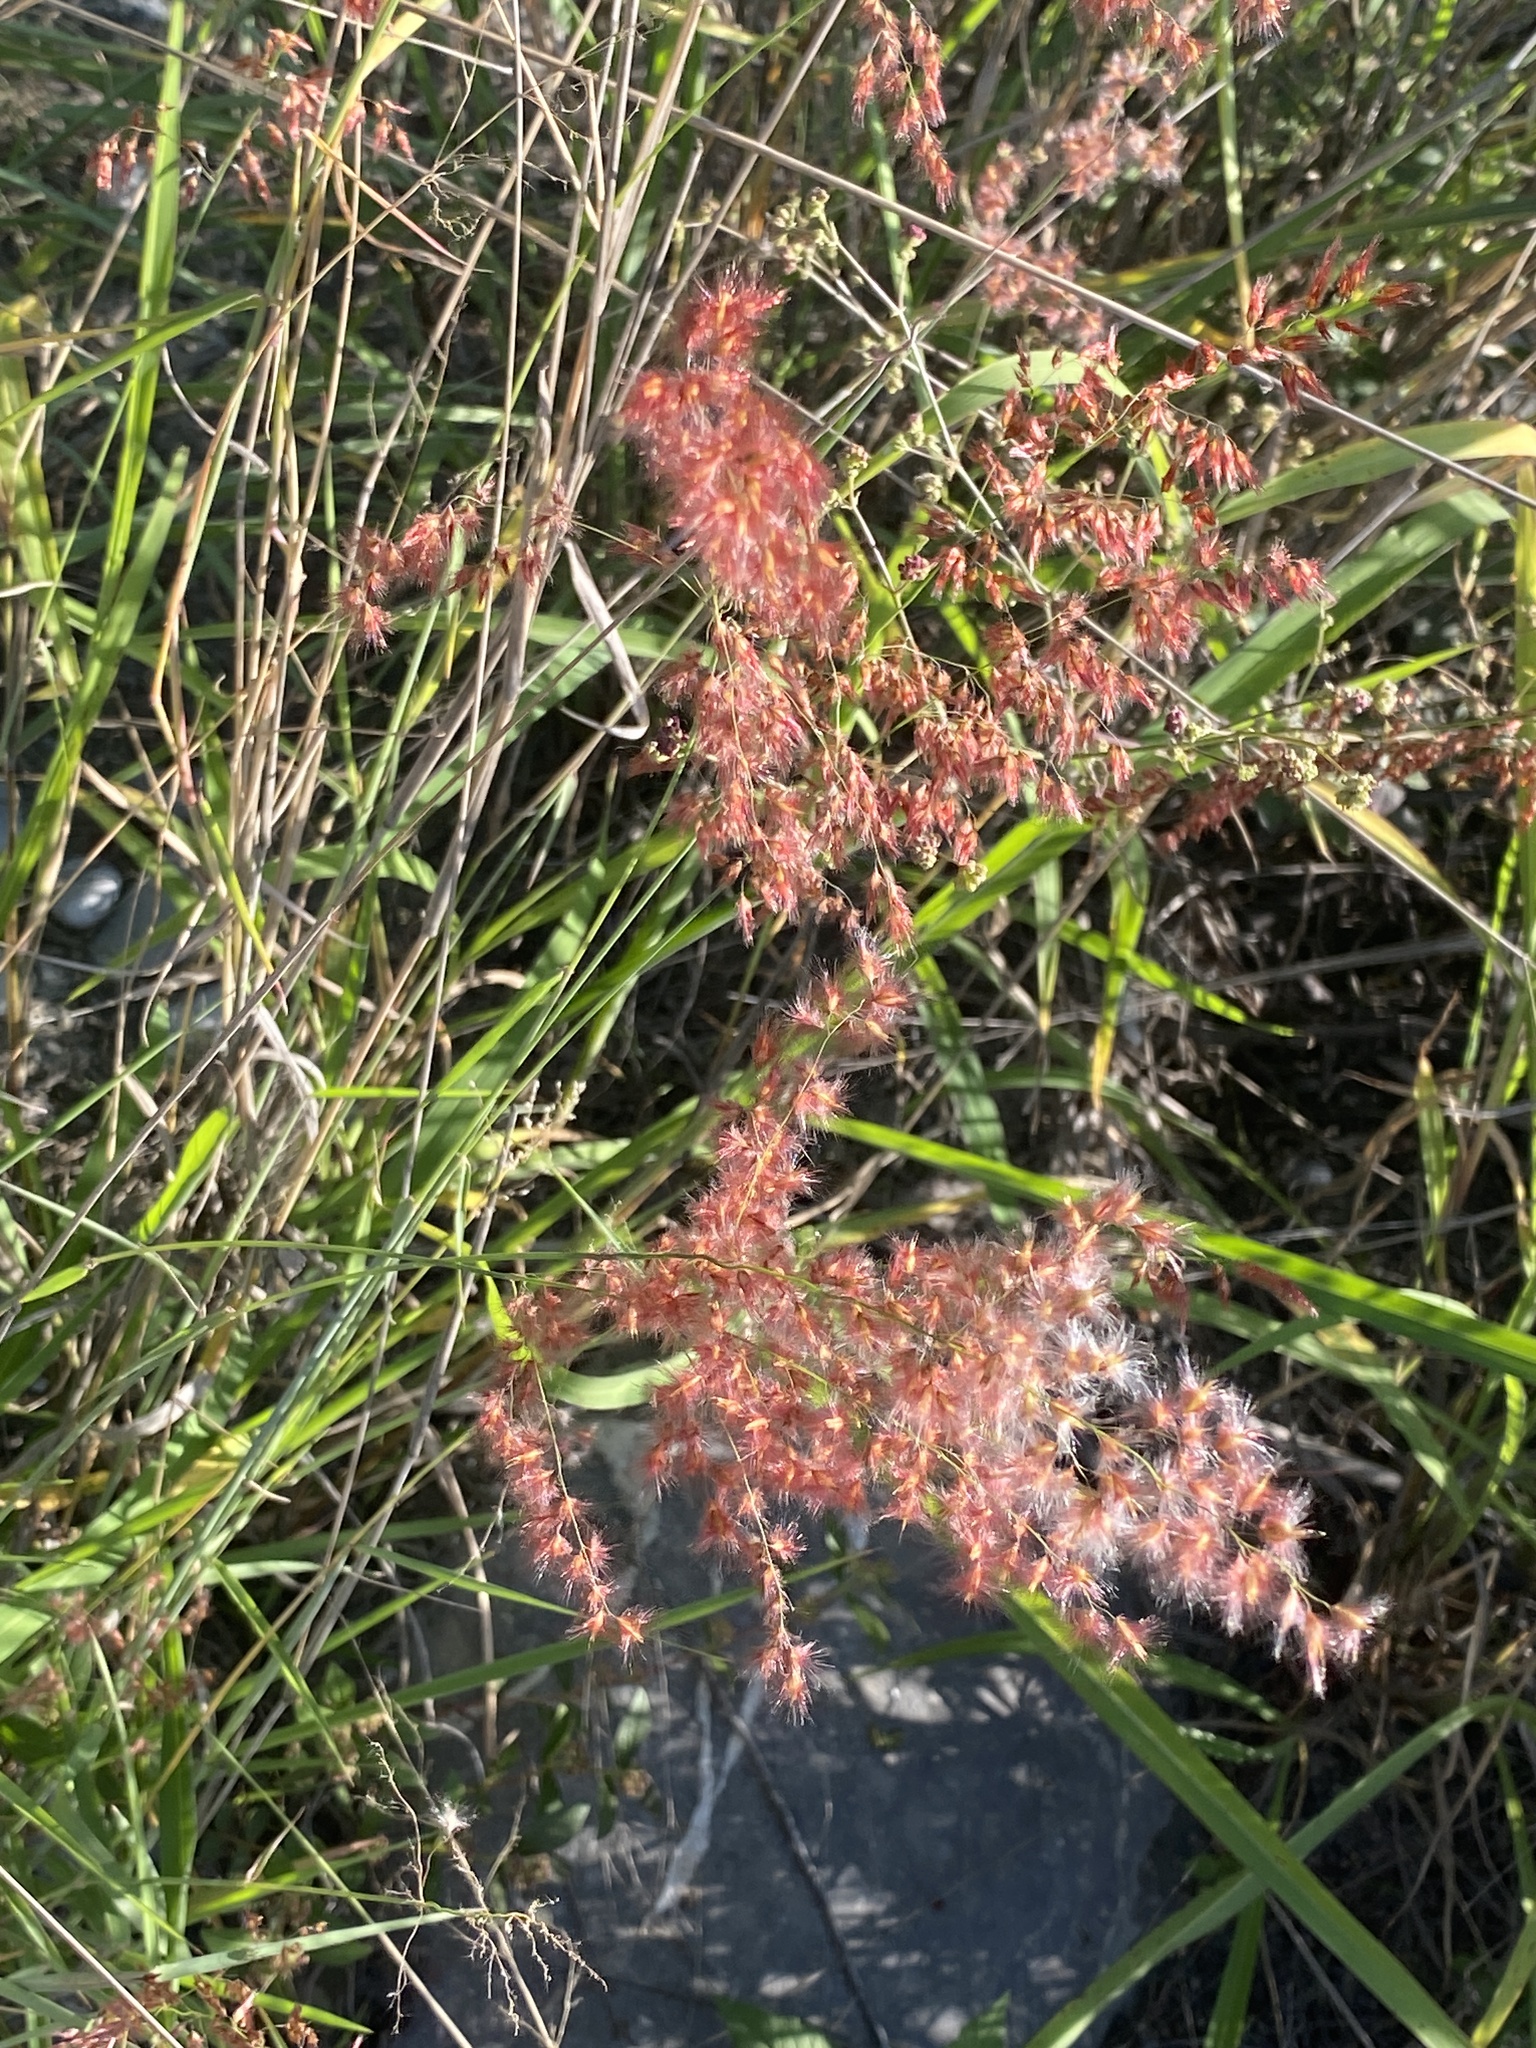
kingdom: Plantae
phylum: Tracheophyta
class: Liliopsida
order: Poales
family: Poaceae
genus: Melinis
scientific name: Melinis repens
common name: Rose natal grass
